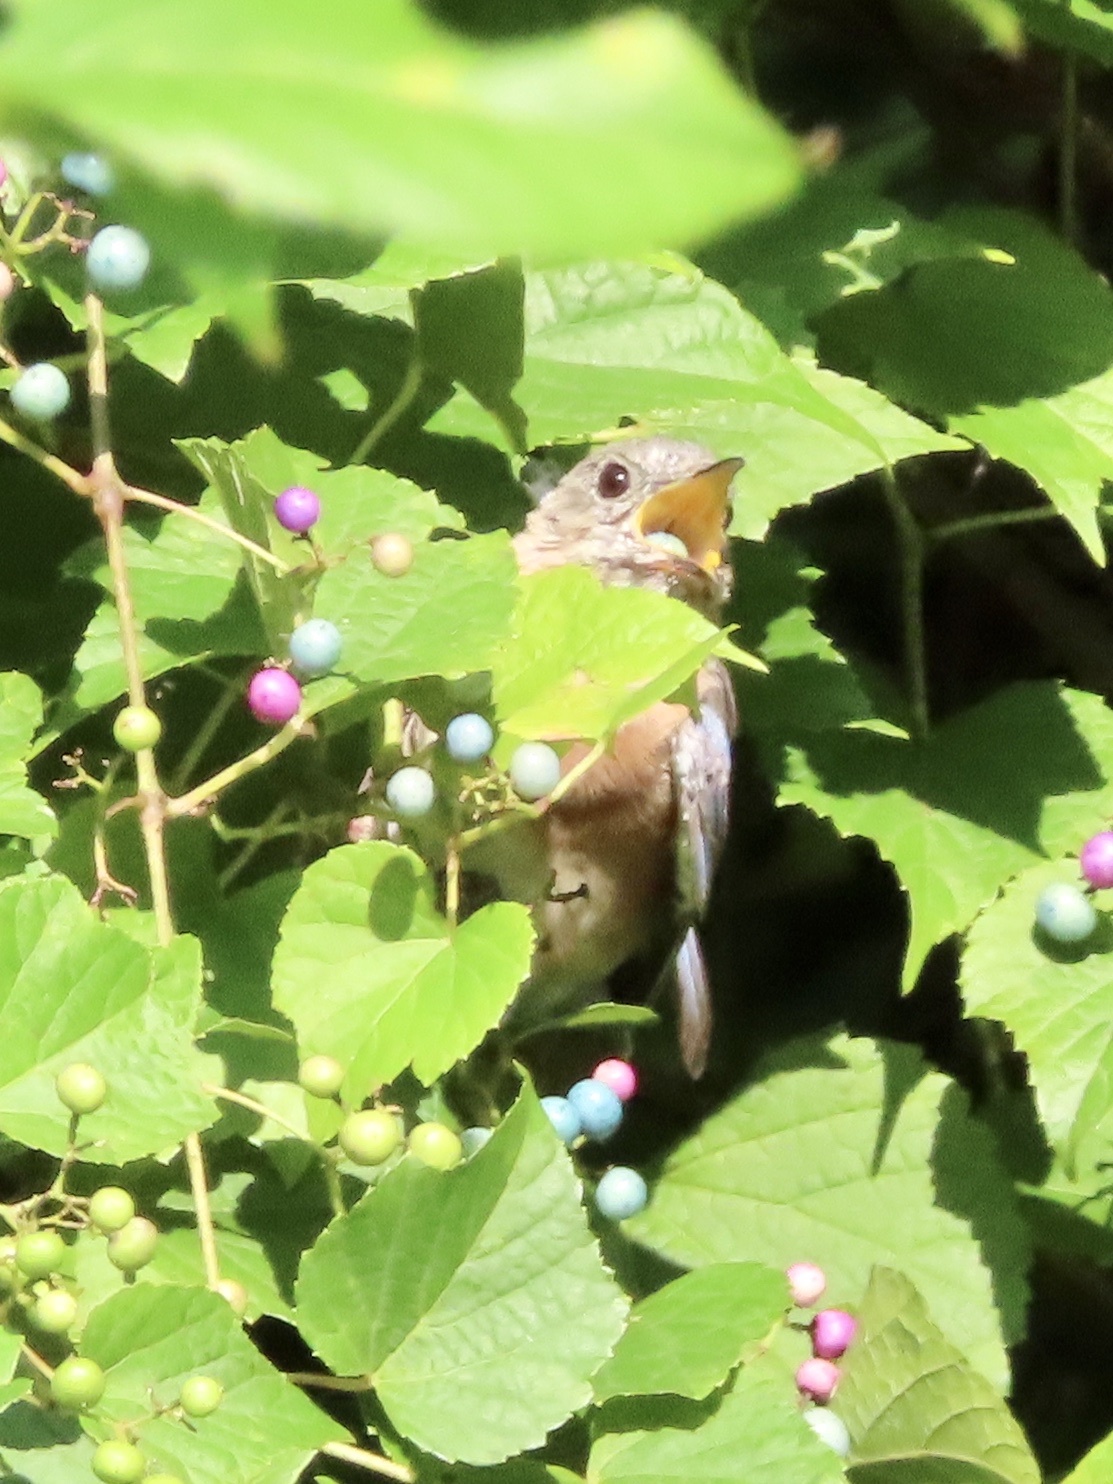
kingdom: Animalia
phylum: Chordata
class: Aves
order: Passeriformes
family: Turdidae
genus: Sialia
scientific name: Sialia sialis
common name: Eastern bluebird
